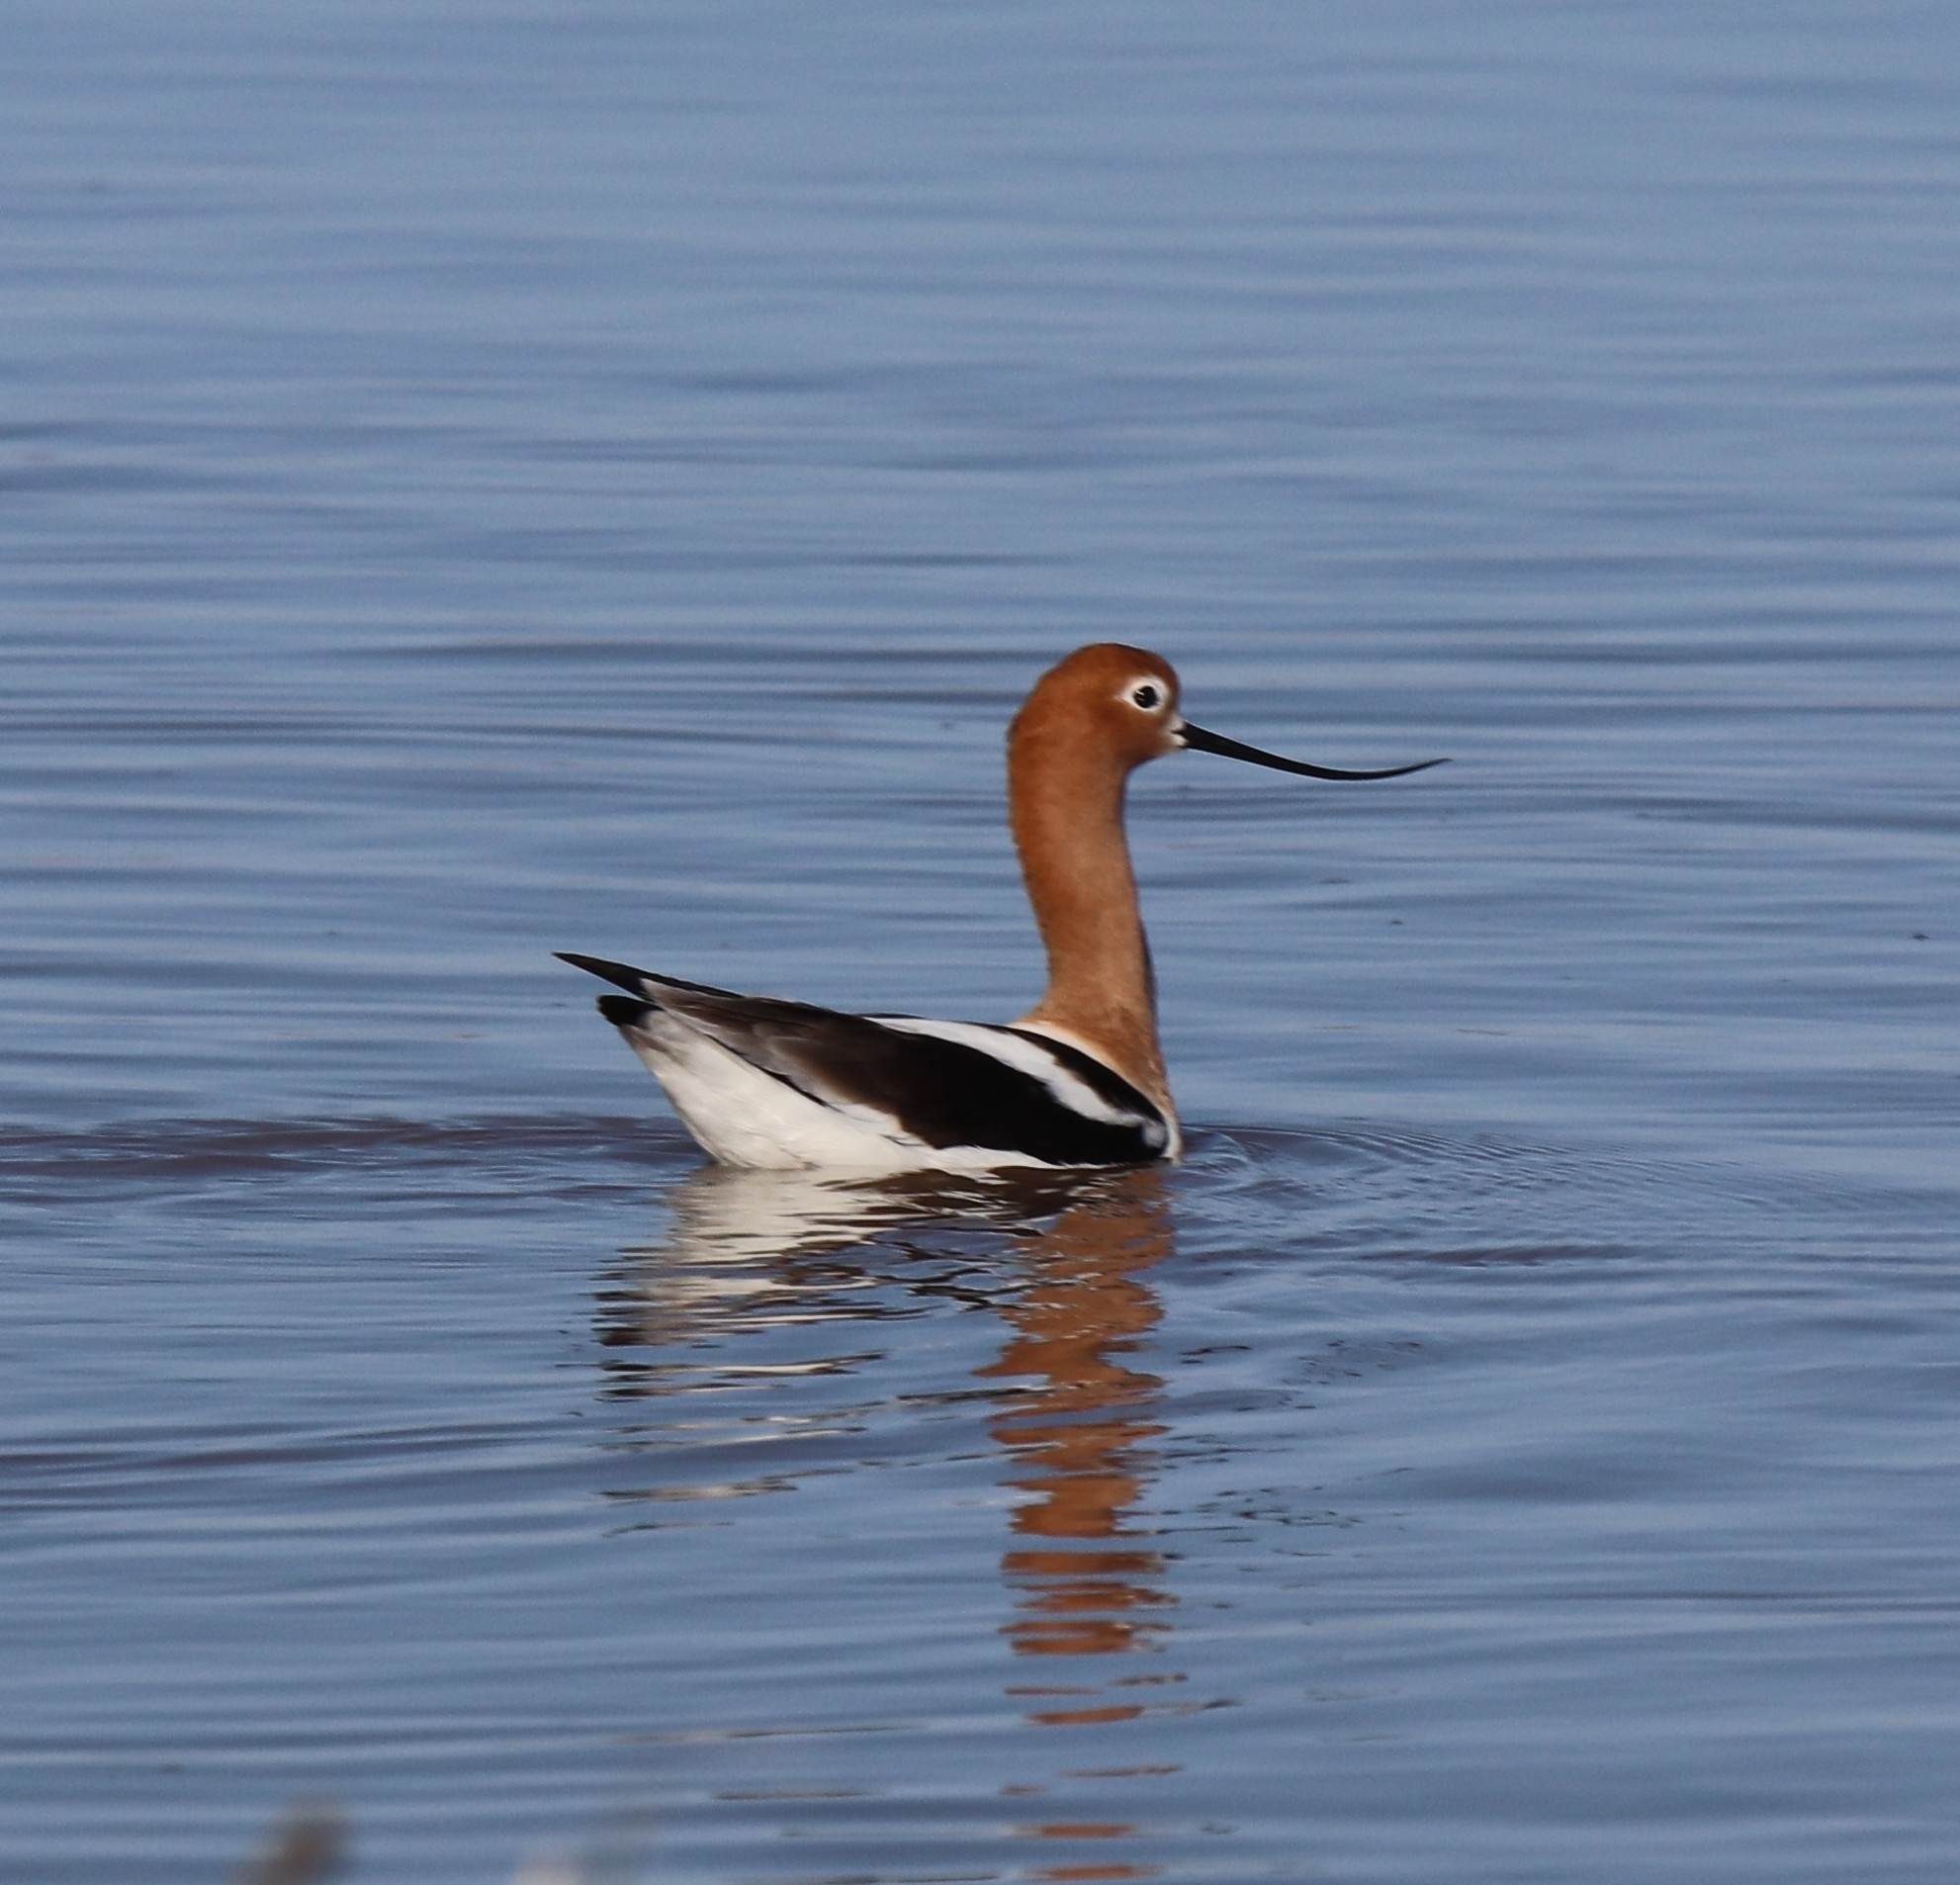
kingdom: Animalia
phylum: Chordata
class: Aves
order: Charadriiformes
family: Recurvirostridae
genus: Recurvirostra
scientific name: Recurvirostra americana
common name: American avocet
